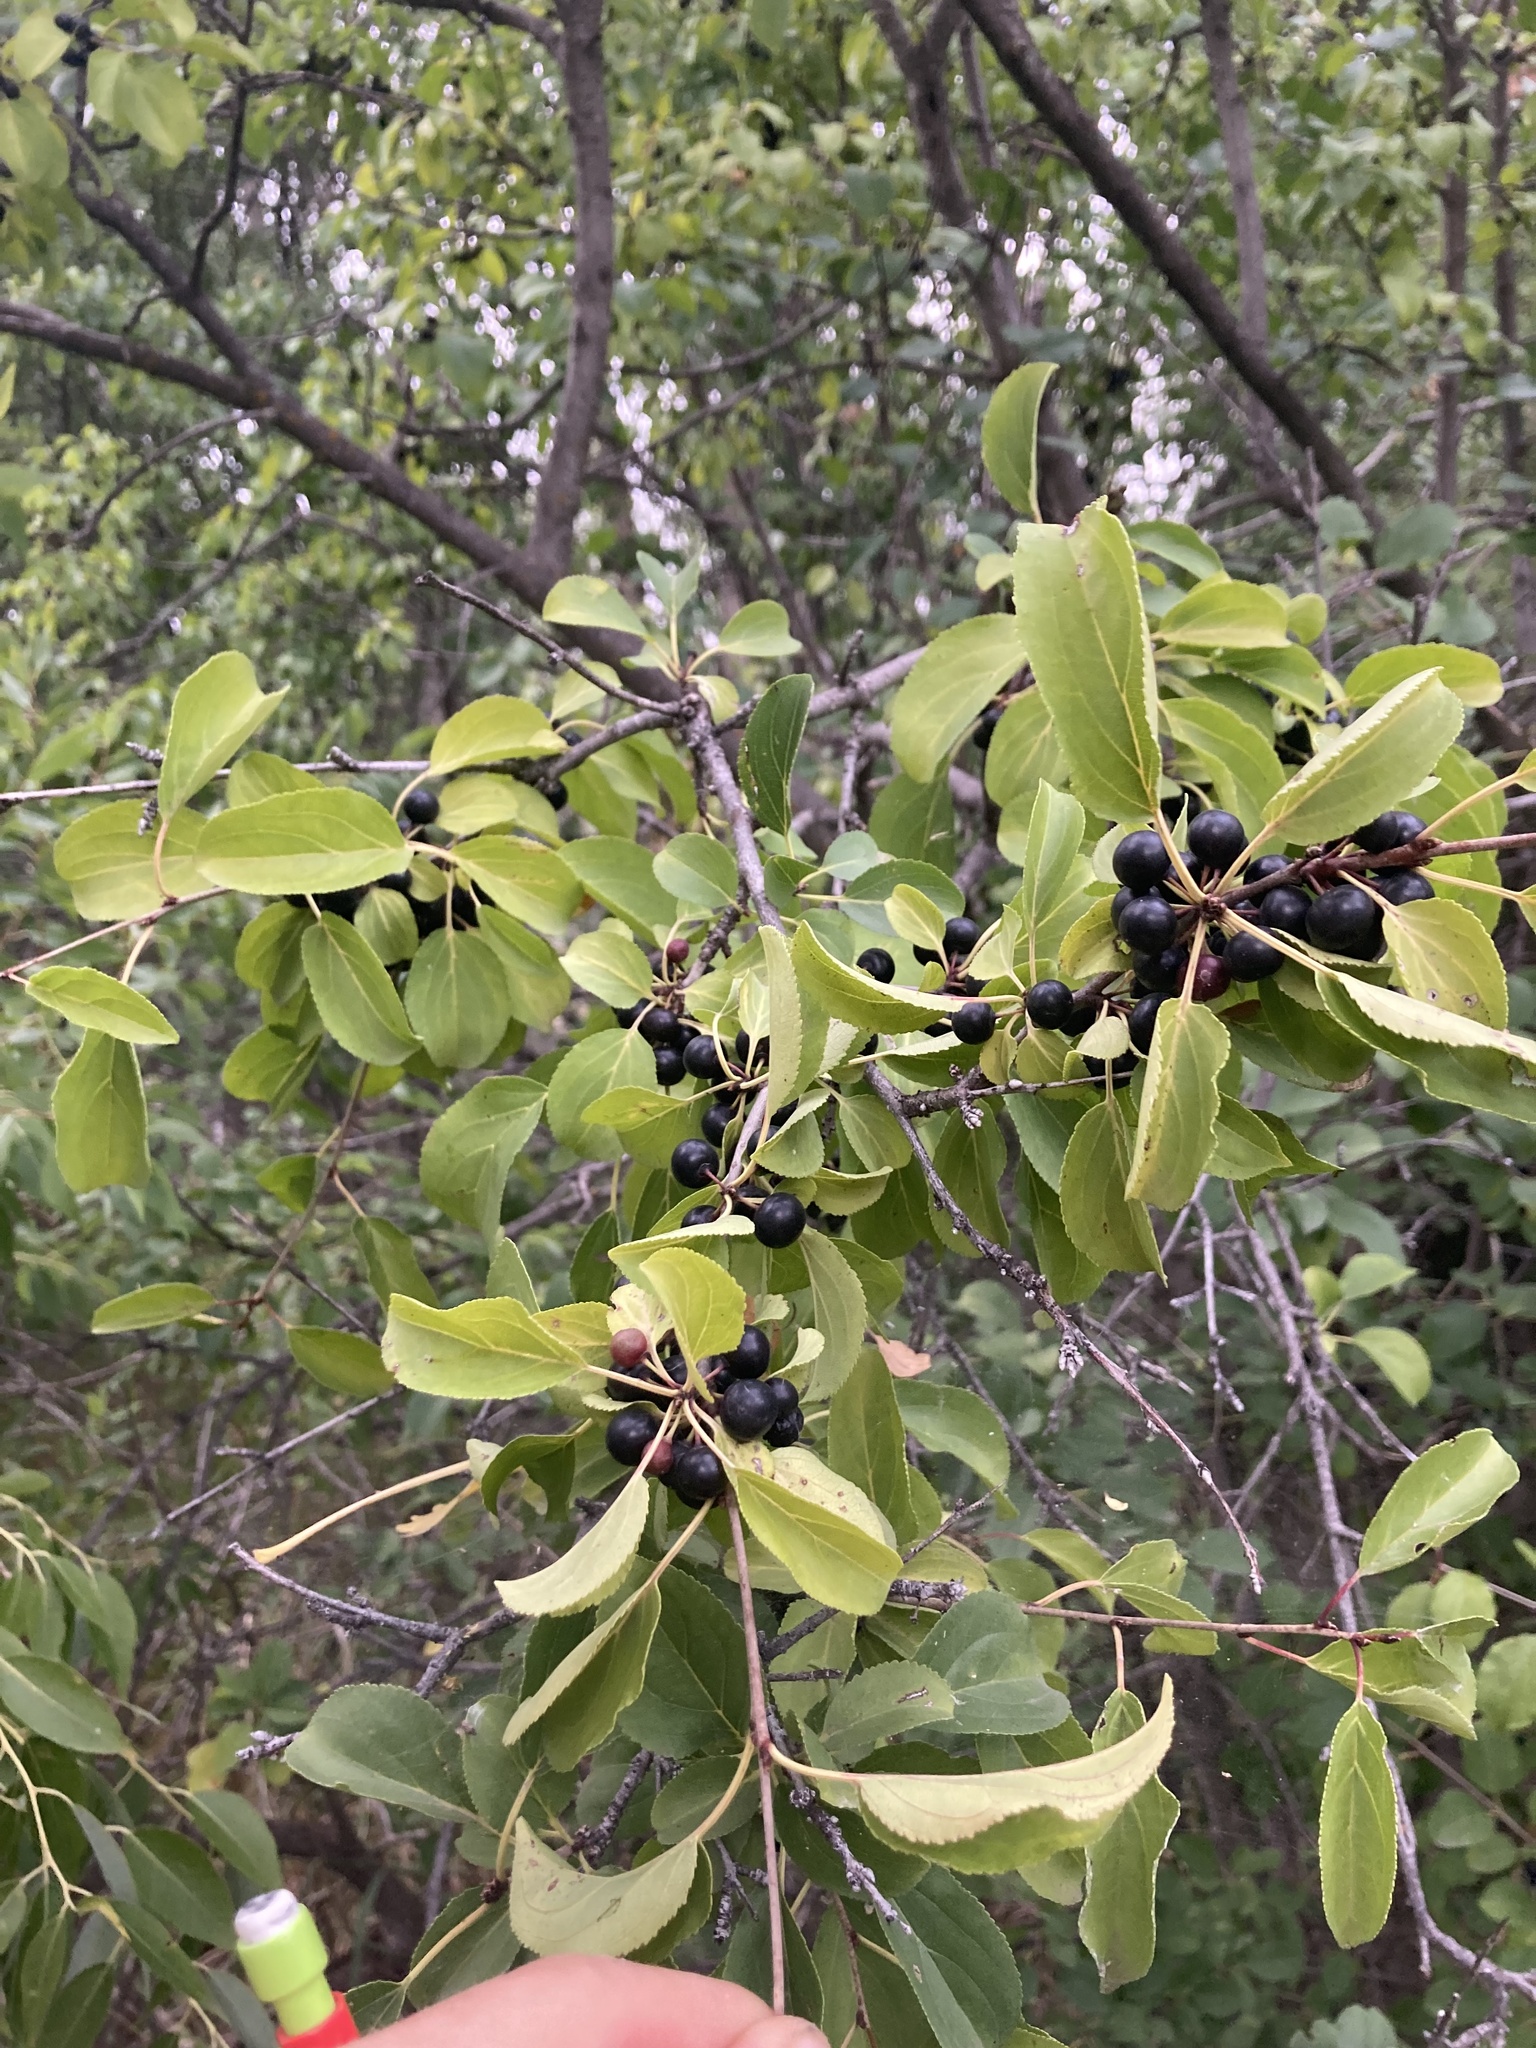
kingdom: Plantae
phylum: Tracheophyta
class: Magnoliopsida
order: Rosales
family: Rhamnaceae
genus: Rhamnus
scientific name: Rhamnus cathartica
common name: Common buckthorn
